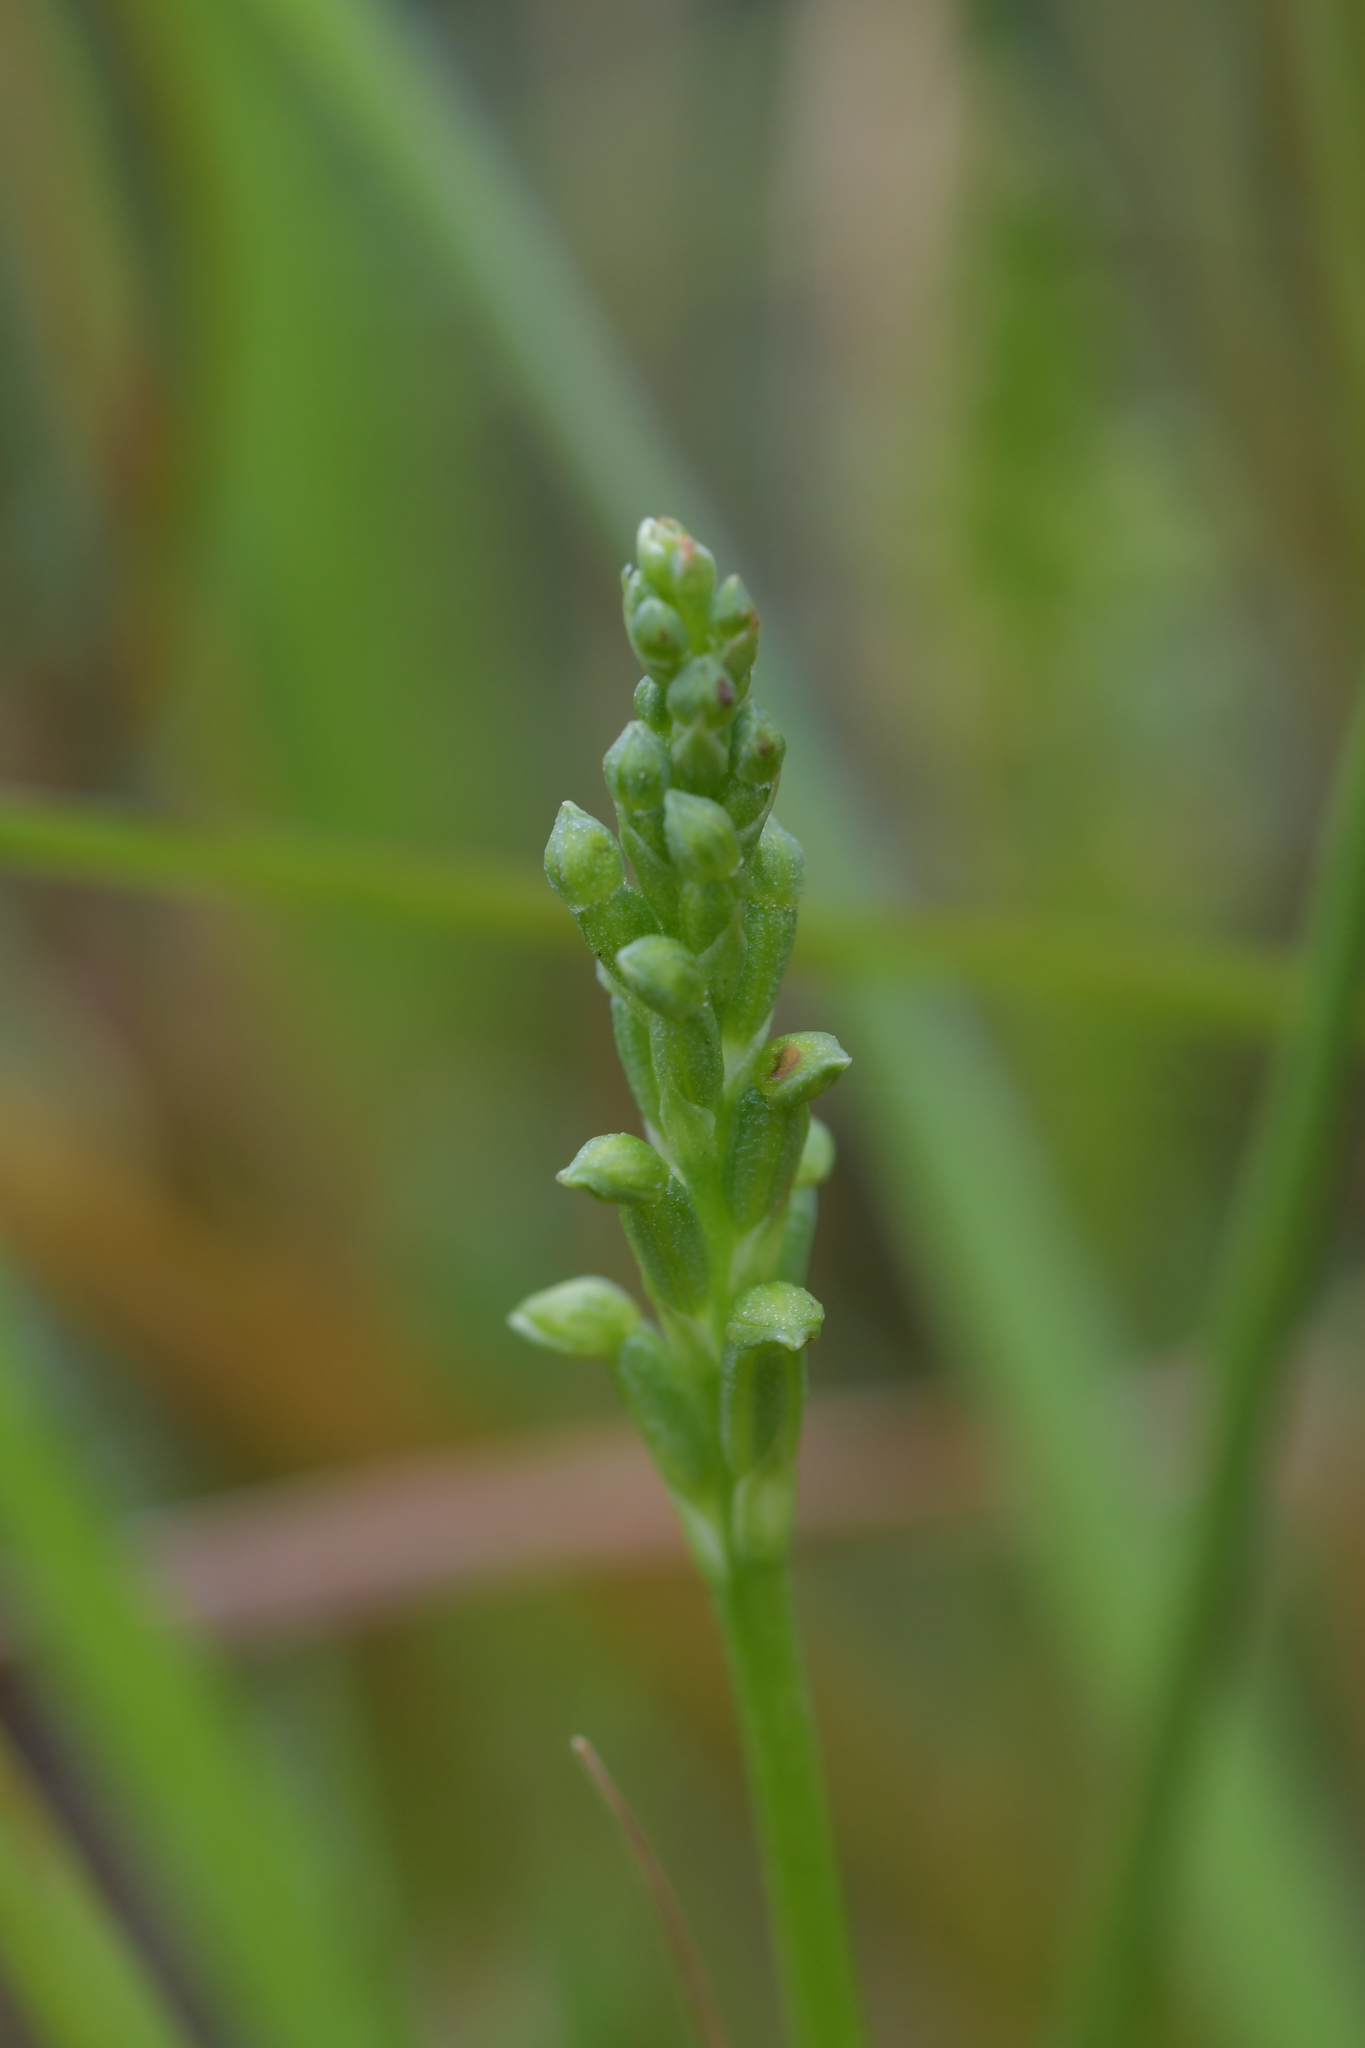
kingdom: Plantae
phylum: Tracheophyta
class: Liliopsida
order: Asparagales
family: Orchidaceae
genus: Microtis
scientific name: Microtis unifolia
